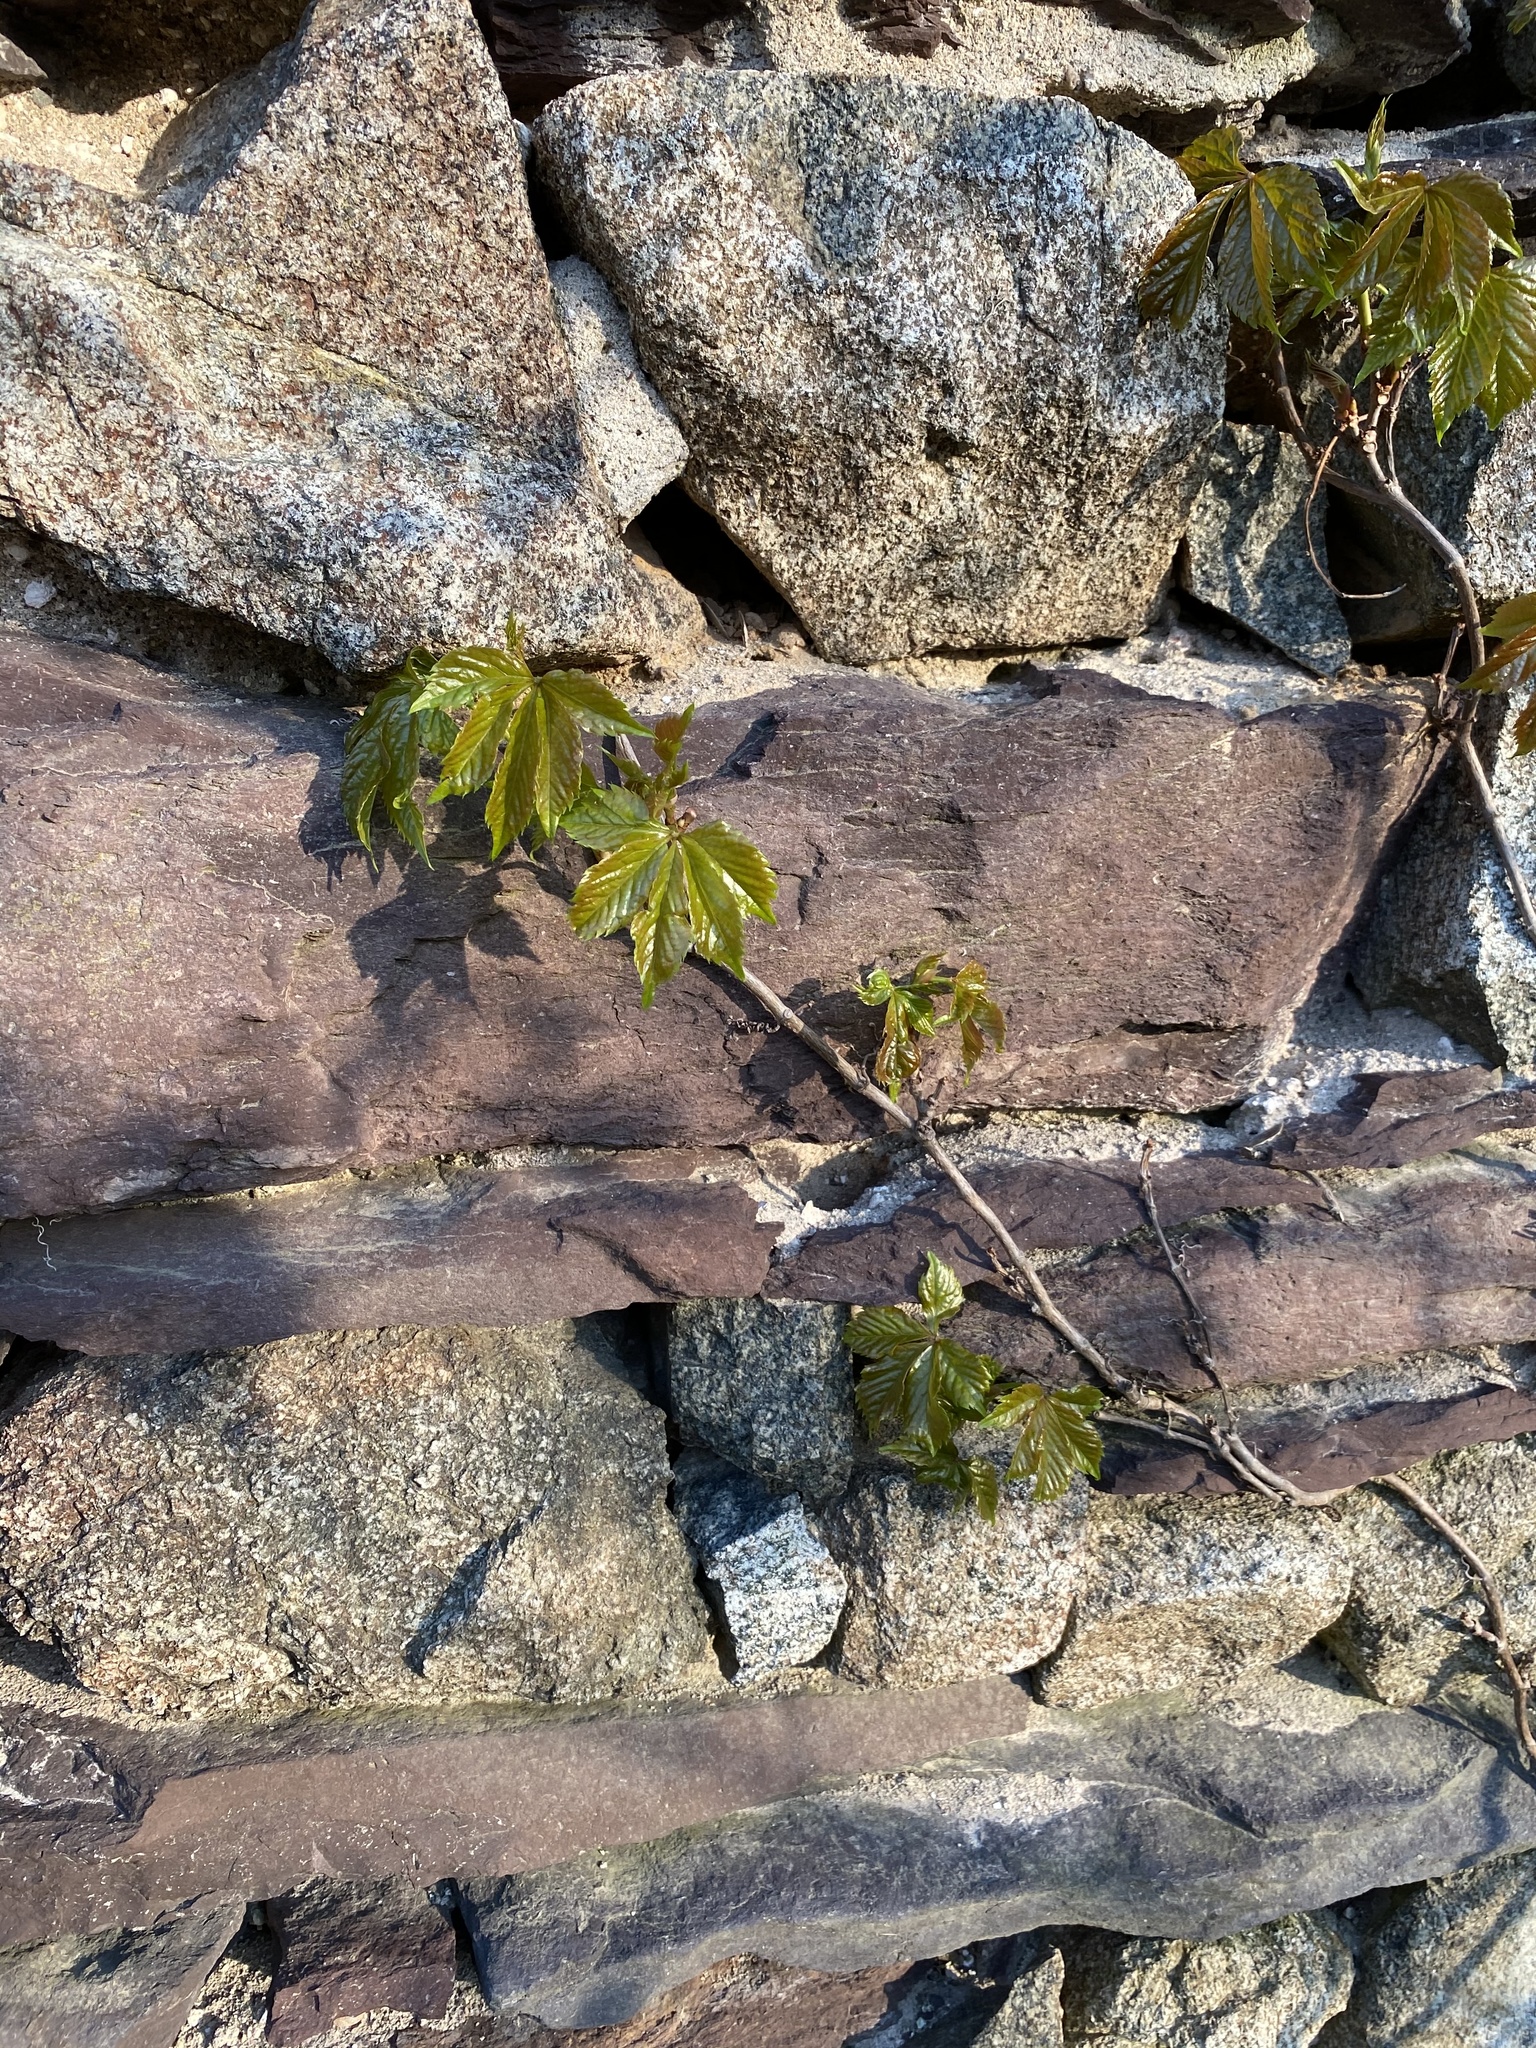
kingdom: Plantae
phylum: Tracheophyta
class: Magnoliopsida
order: Vitales
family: Vitaceae
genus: Parthenocissus
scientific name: Parthenocissus quinquefolia
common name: Virginia-creeper
